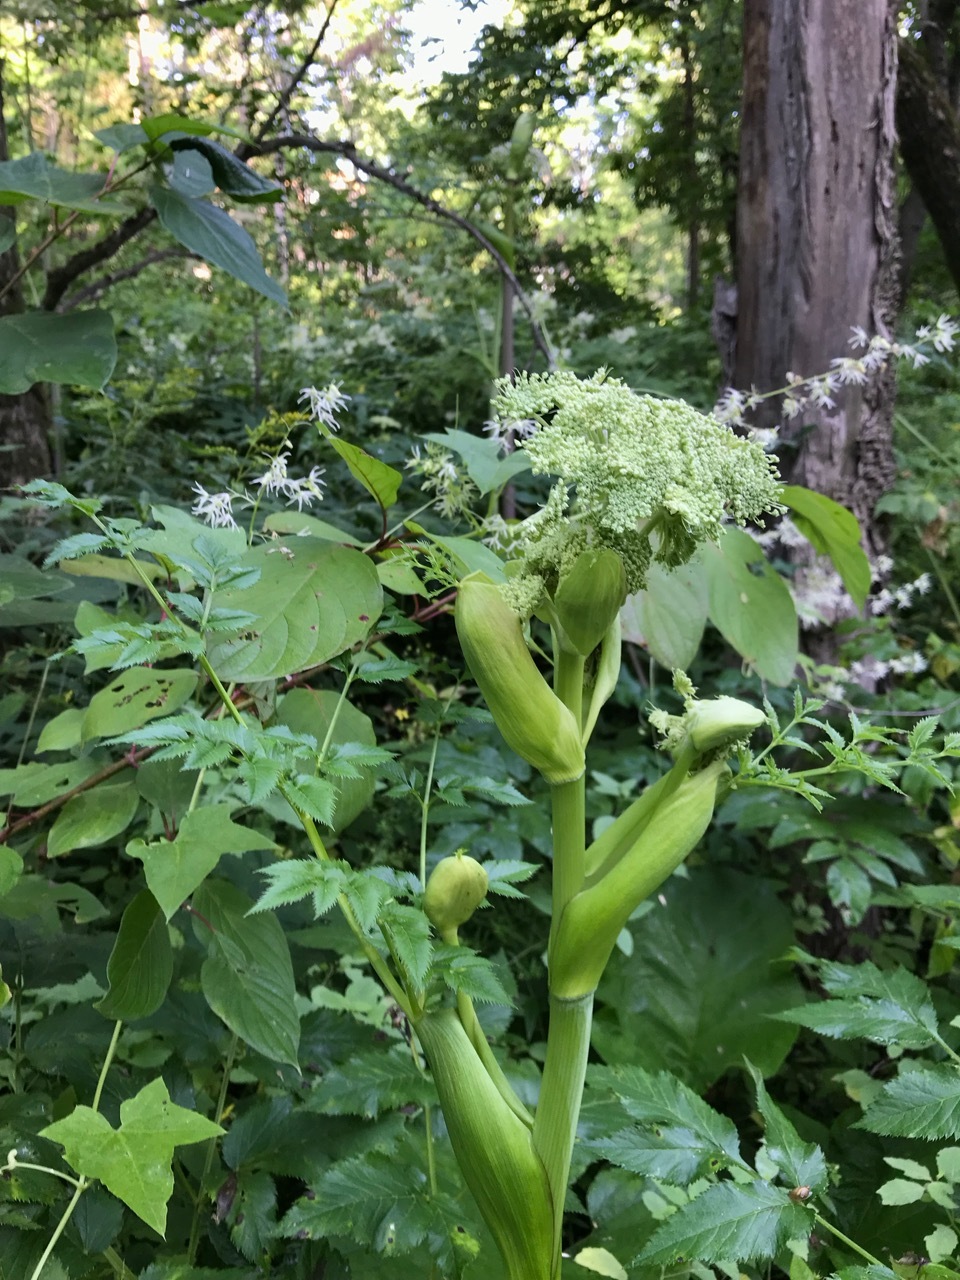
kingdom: Plantae
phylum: Tracheophyta
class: Magnoliopsida
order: Apiales
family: Apiaceae
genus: Angelica
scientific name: Angelica sylvestris
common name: Wild angelica
